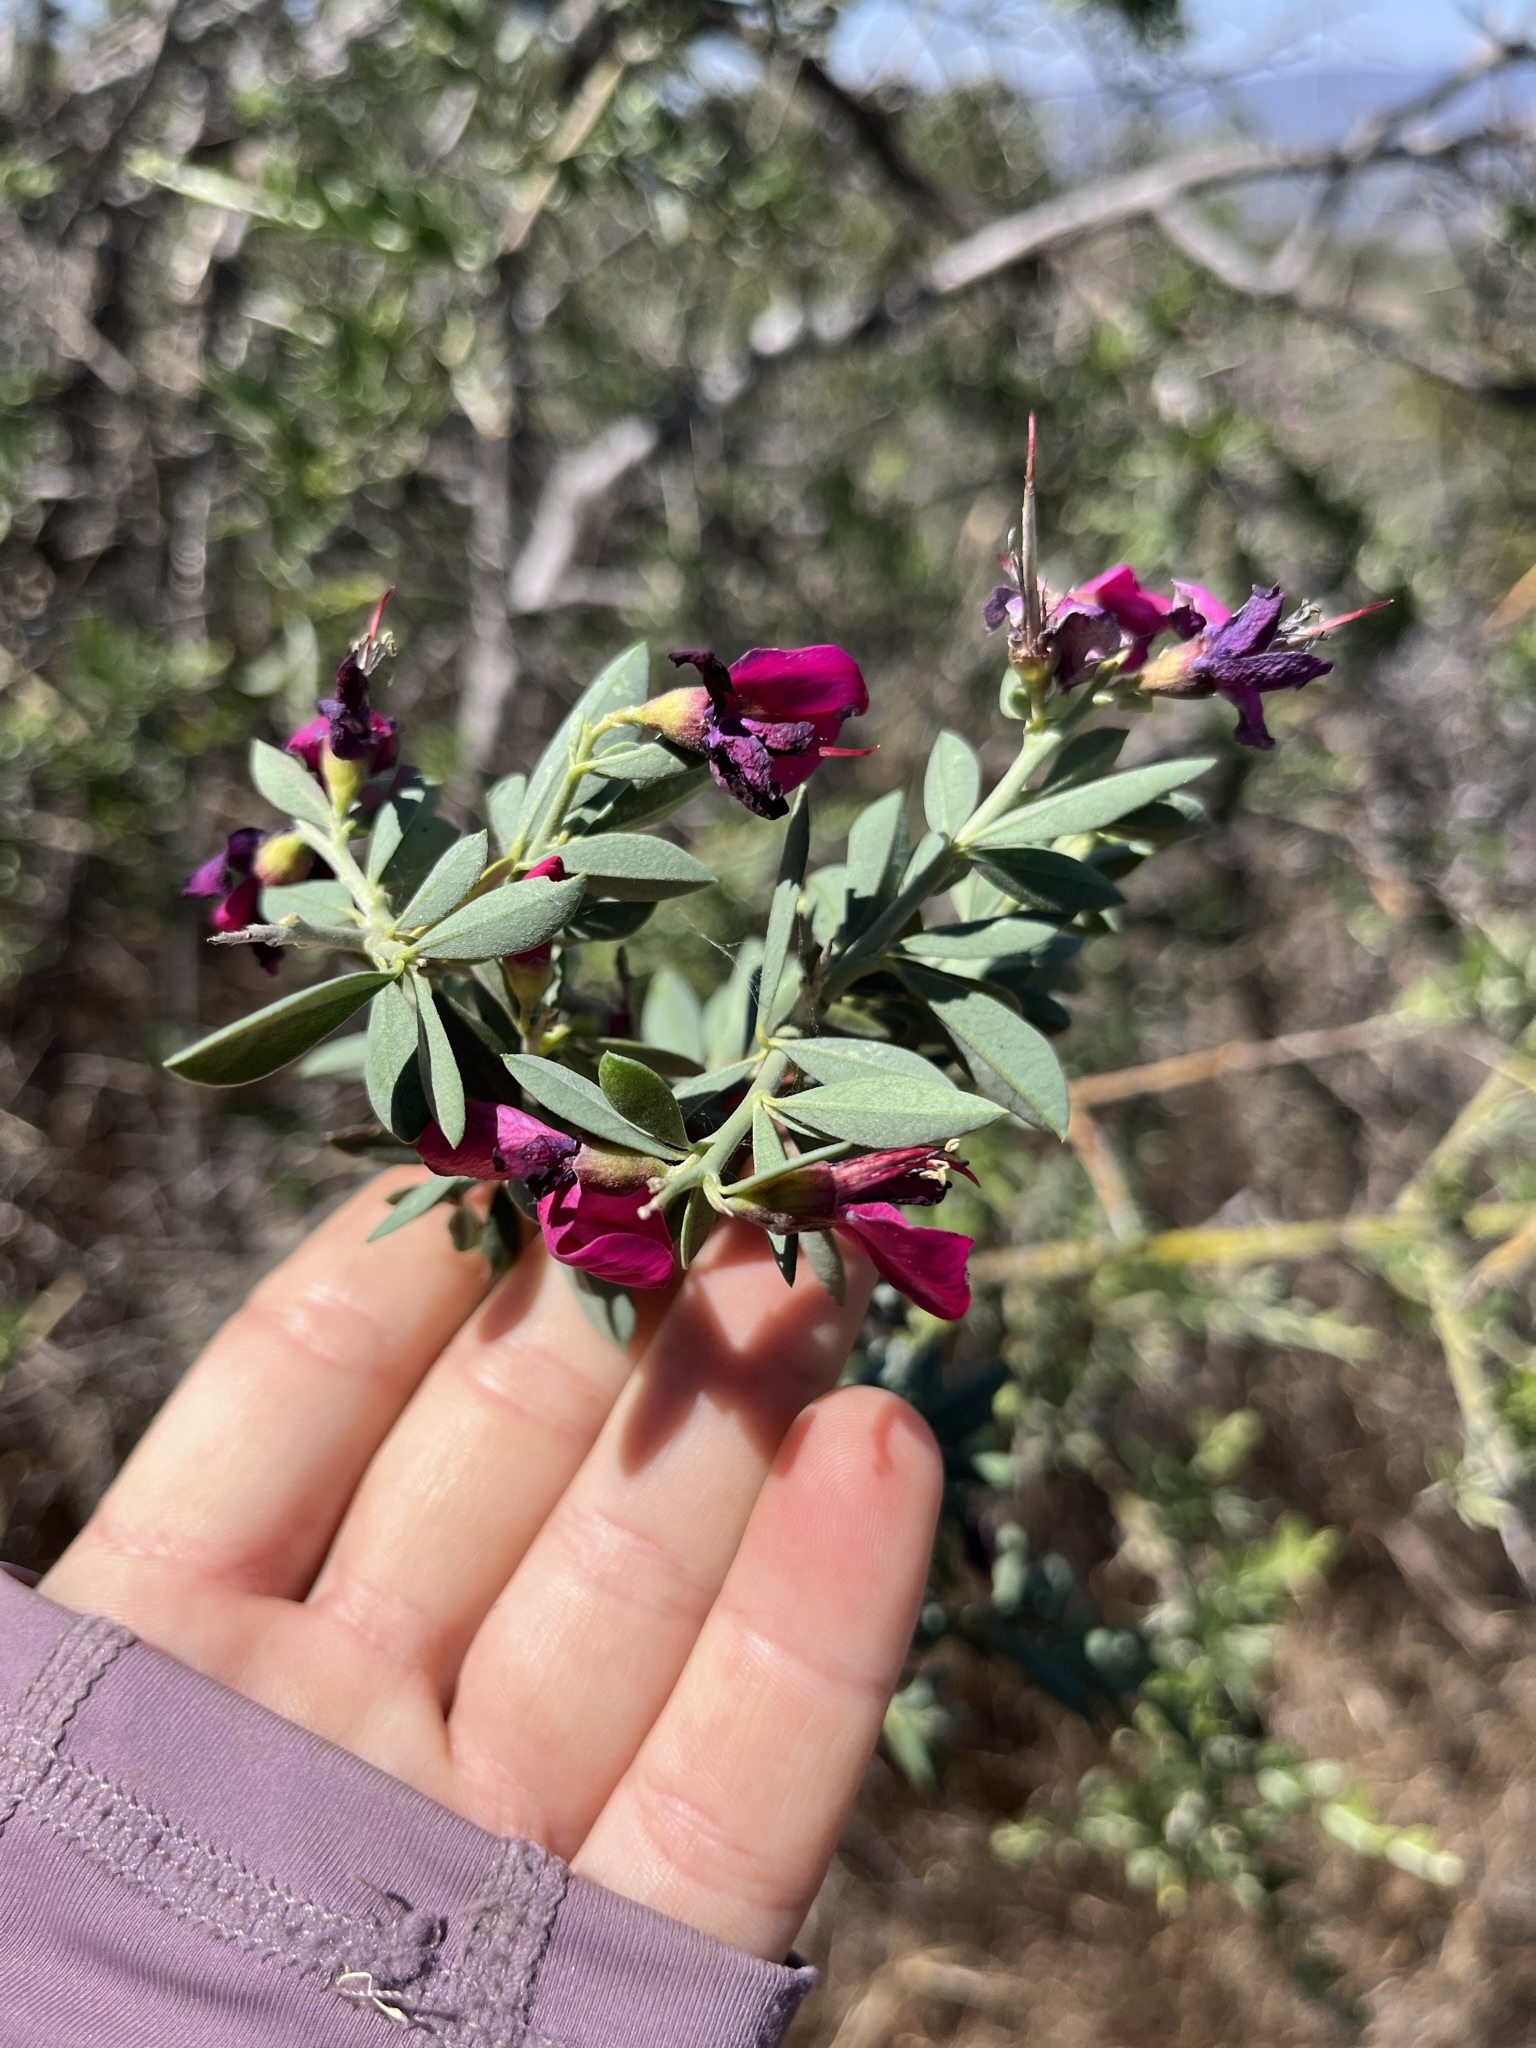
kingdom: Plantae
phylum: Tracheophyta
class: Magnoliopsida
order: Fabales
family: Fabaceae
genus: Pickeringia
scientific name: Pickeringia montana
